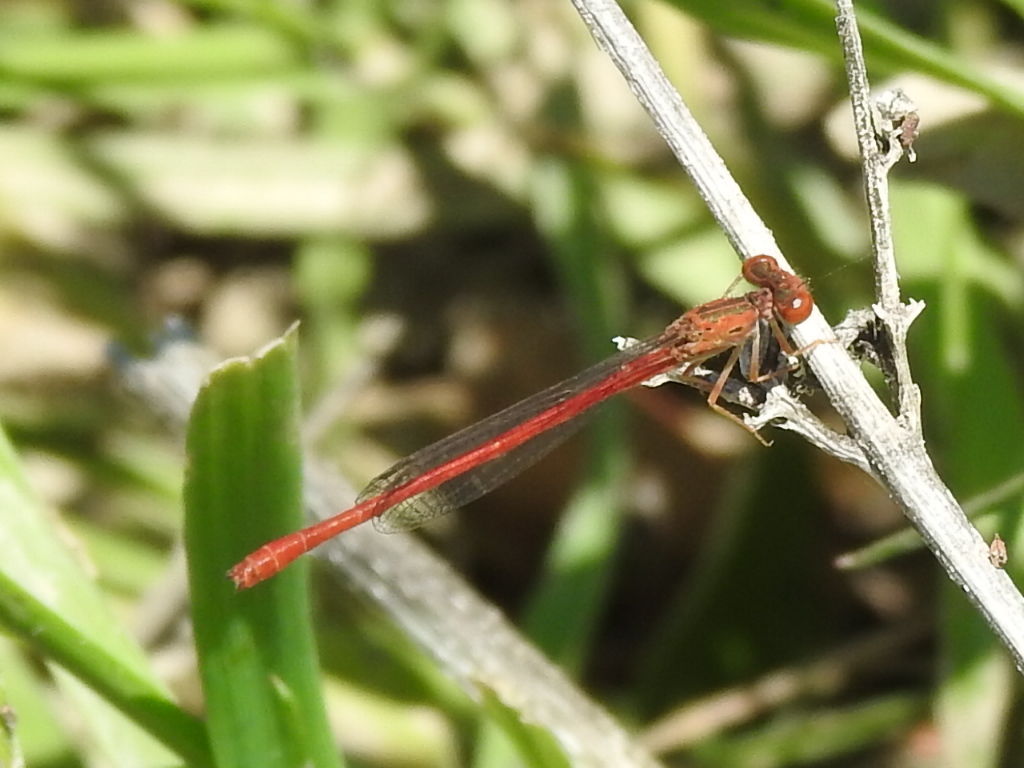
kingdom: Animalia
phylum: Arthropoda
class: Insecta
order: Odonata
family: Coenagrionidae
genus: Telebasis
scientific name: Telebasis salva
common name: Desert firetail
